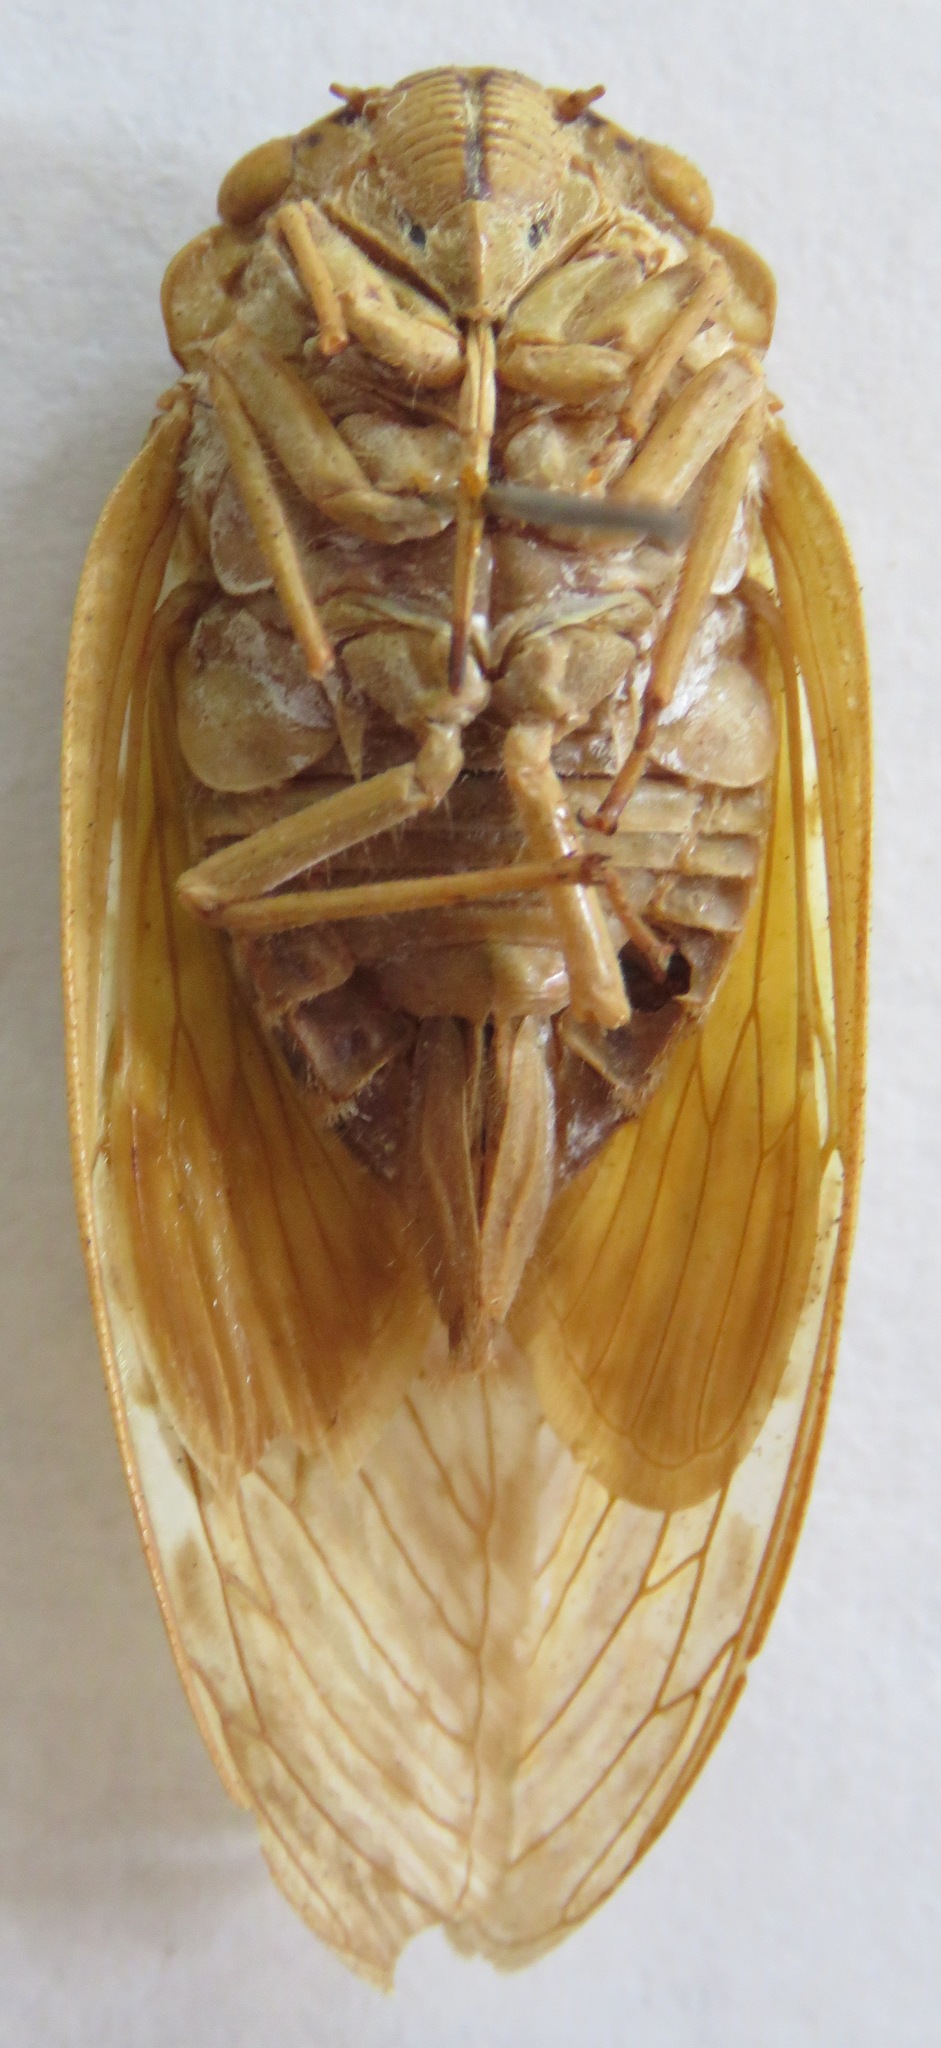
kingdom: Animalia
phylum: Arthropoda
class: Insecta
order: Hemiptera
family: Cicadidae
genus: Yanga
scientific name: Yanga guttulata
